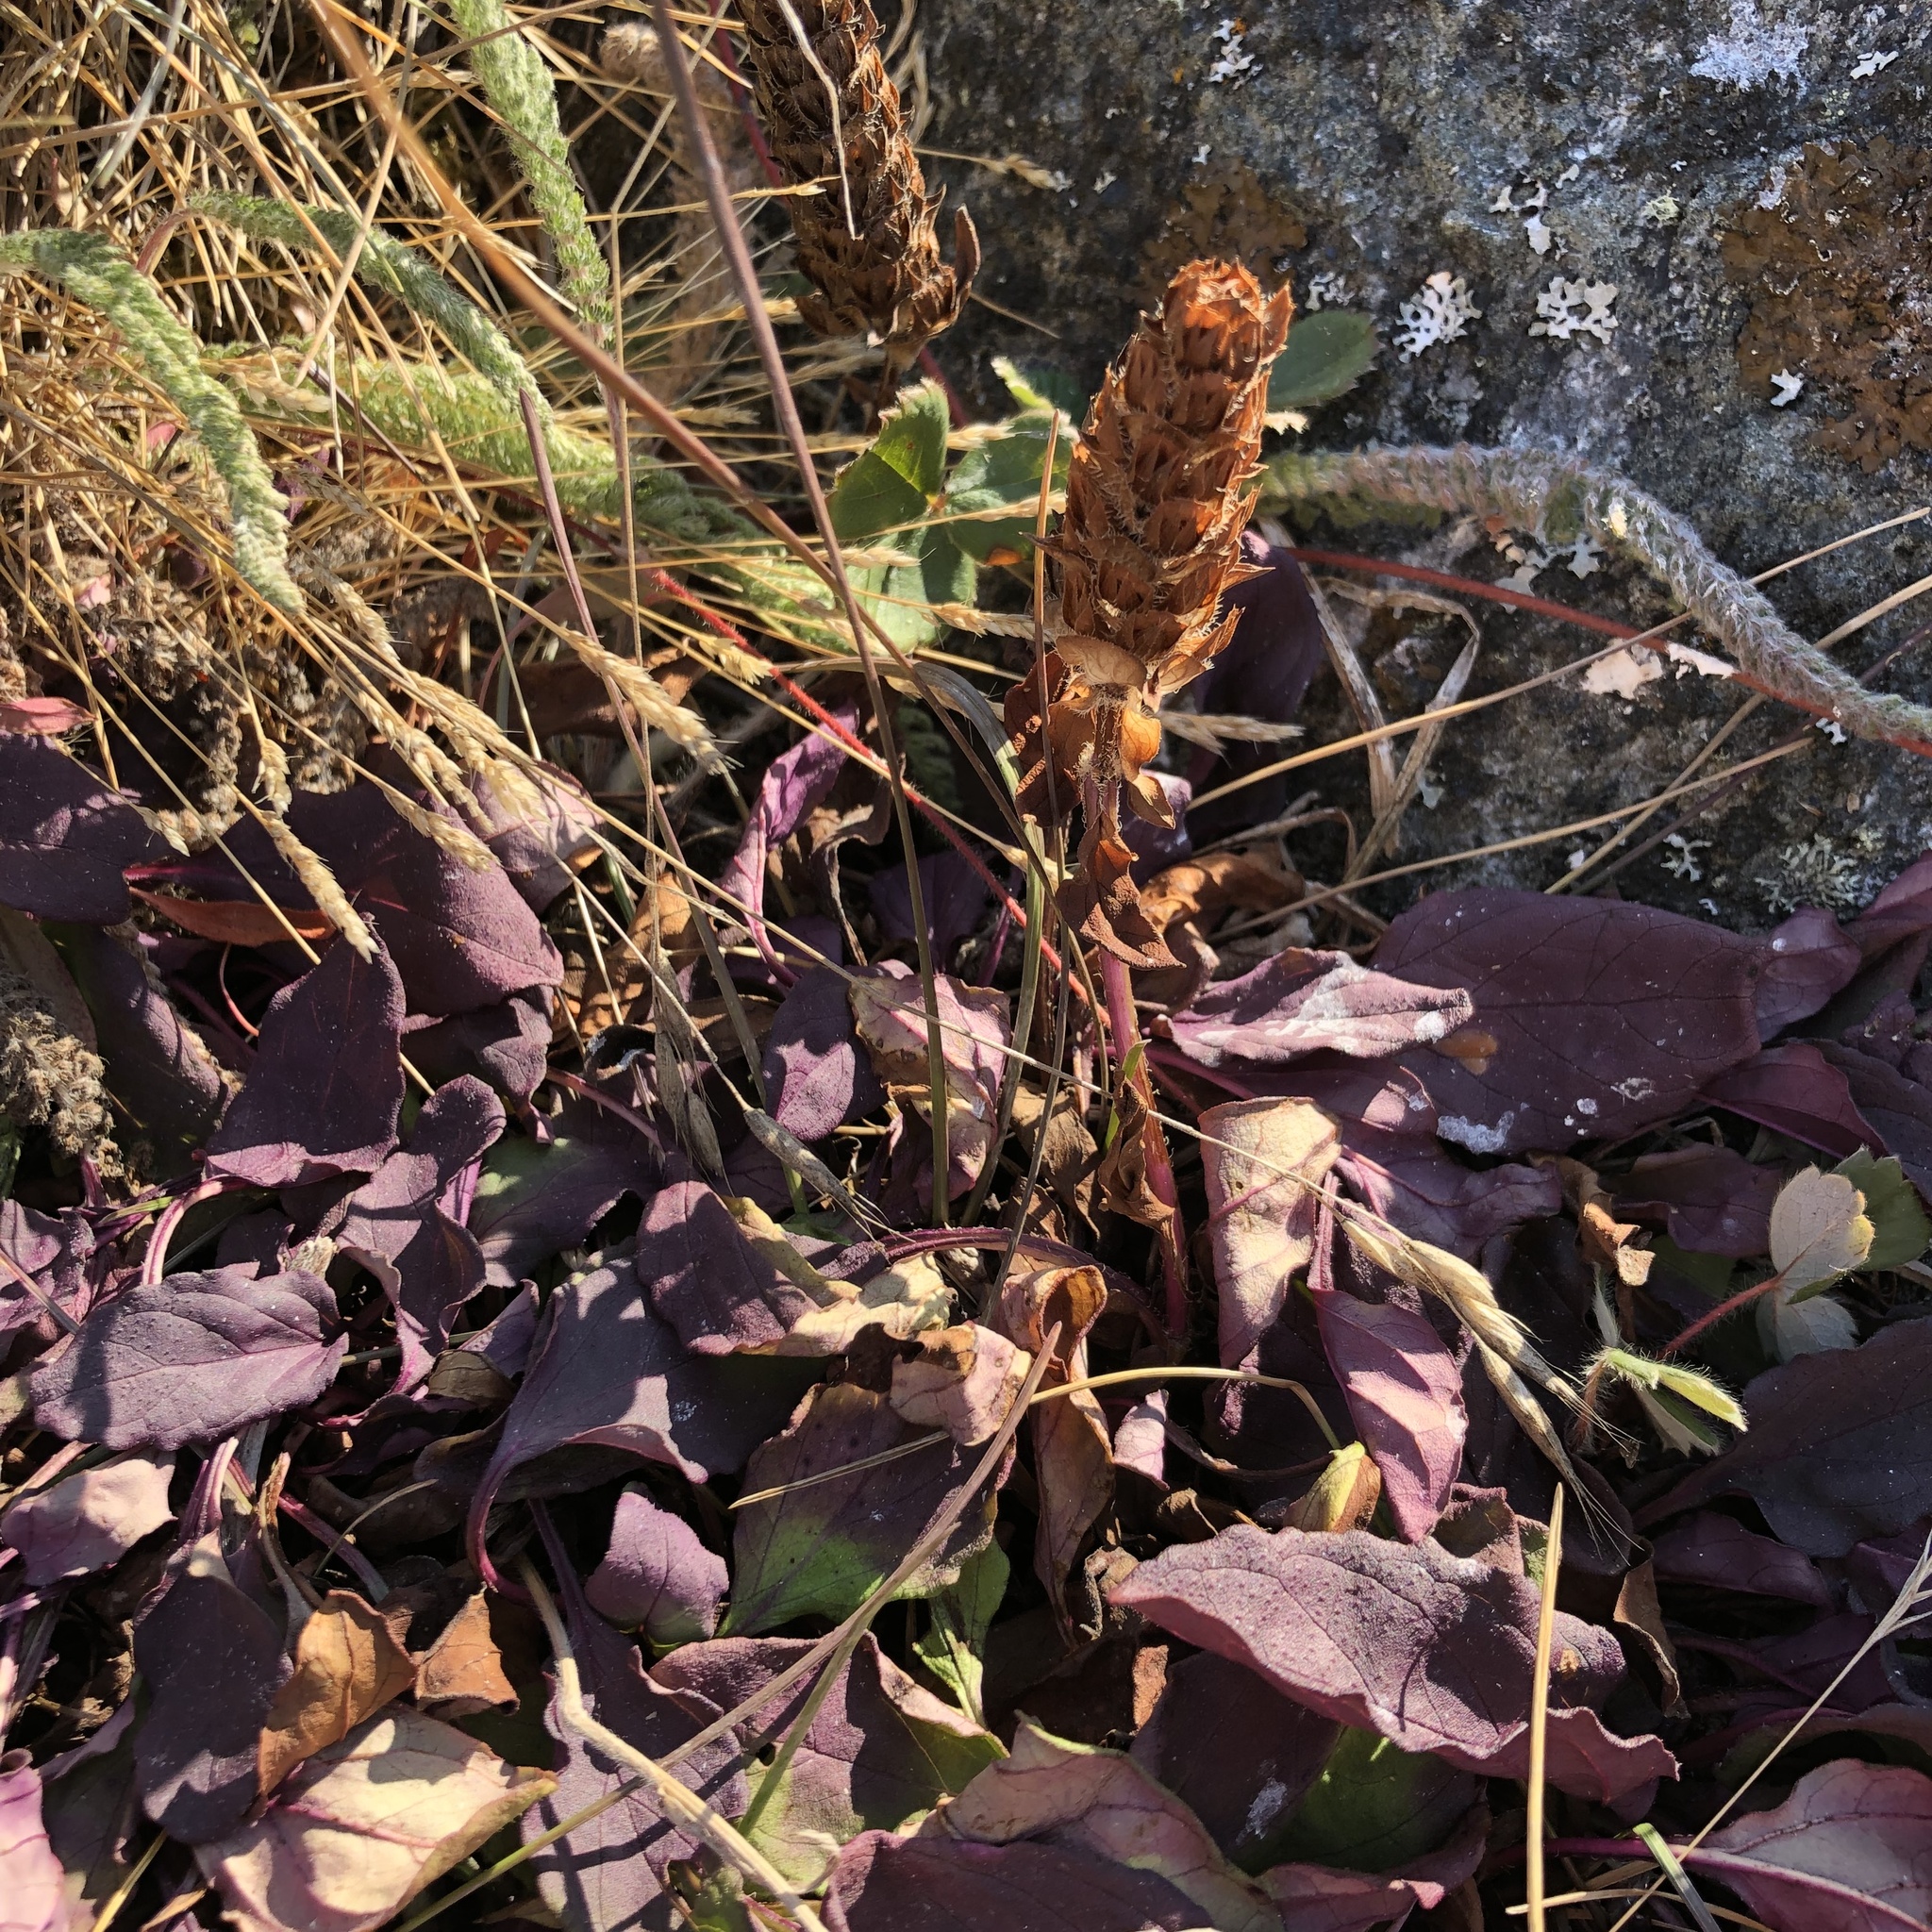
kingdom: Plantae
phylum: Tracheophyta
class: Magnoliopsida
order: Lamiales
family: Lamiaceae
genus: Prunella
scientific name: Prunella vulgaris
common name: Heal-all
